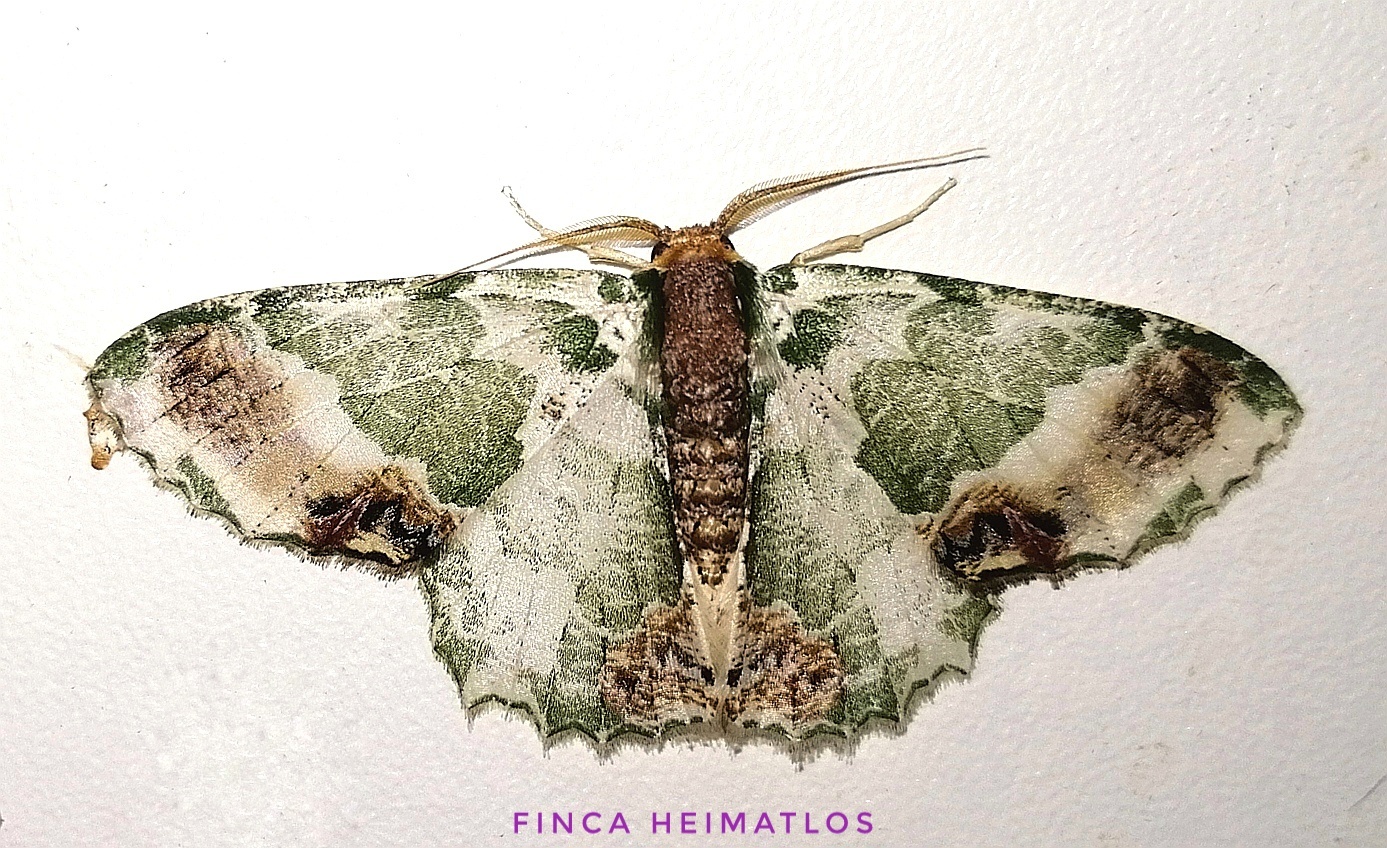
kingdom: Animalia
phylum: Arthropoda
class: Insecta
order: Lepidoptera
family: Geometridae
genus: Lophochorista
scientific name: Lophochorista ockendeni
